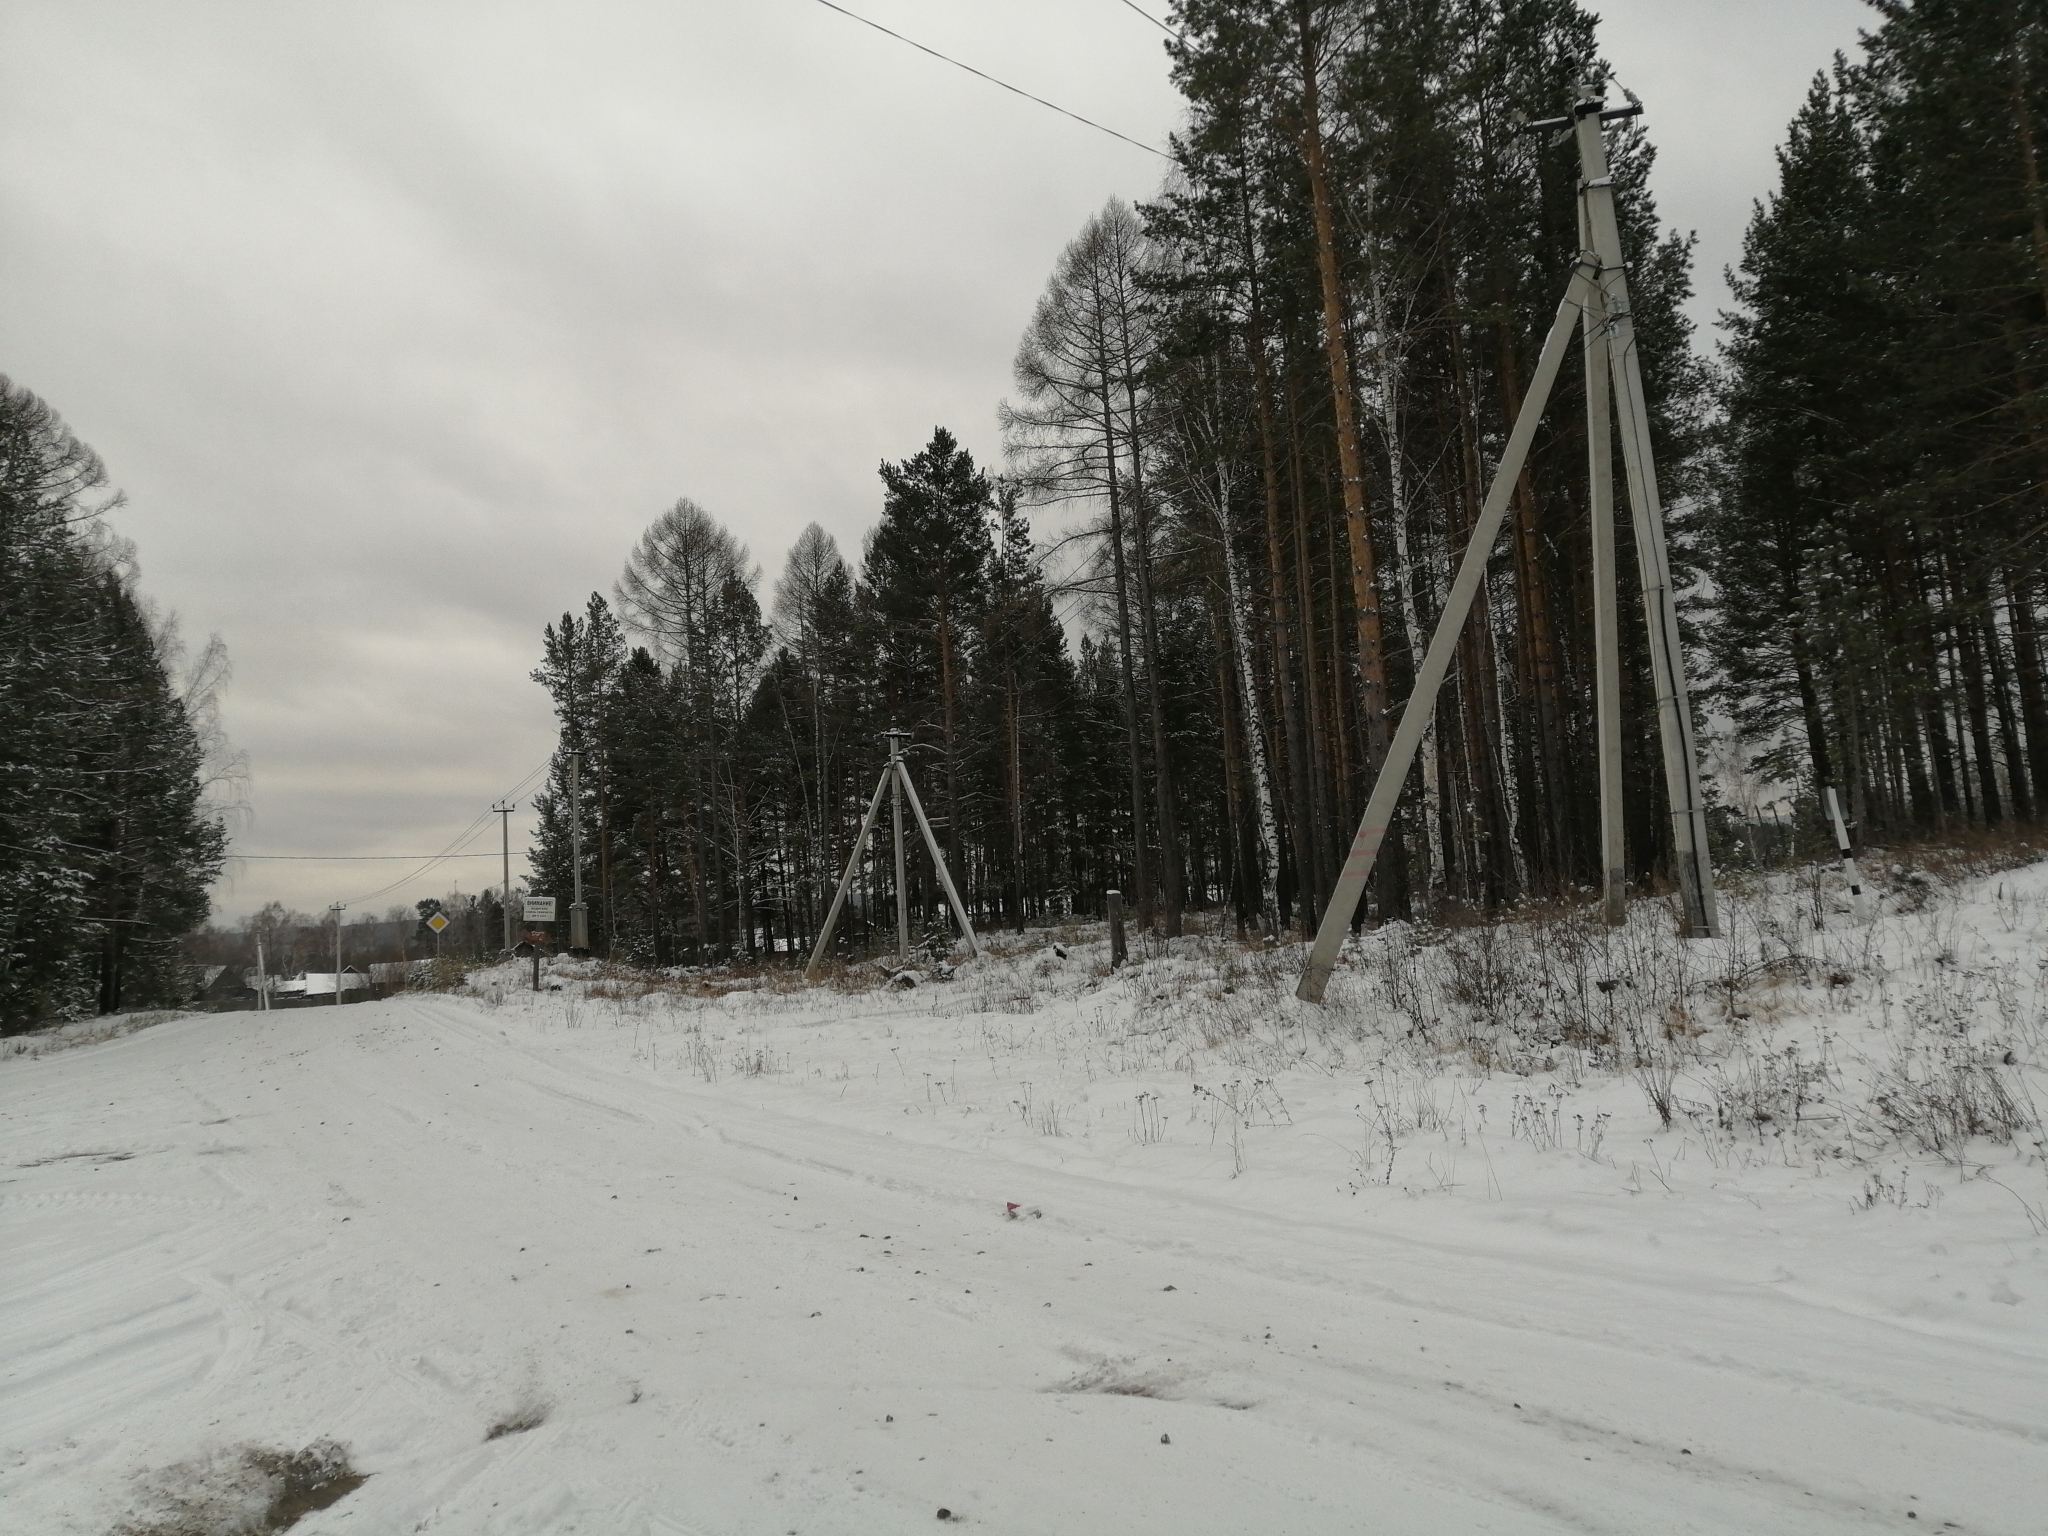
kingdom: Plantae
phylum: Tracheophyta
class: Pinopsida
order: Pinales
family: Pinaceae
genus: Pinus
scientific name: Pinus sylvestris
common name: Scots pine
